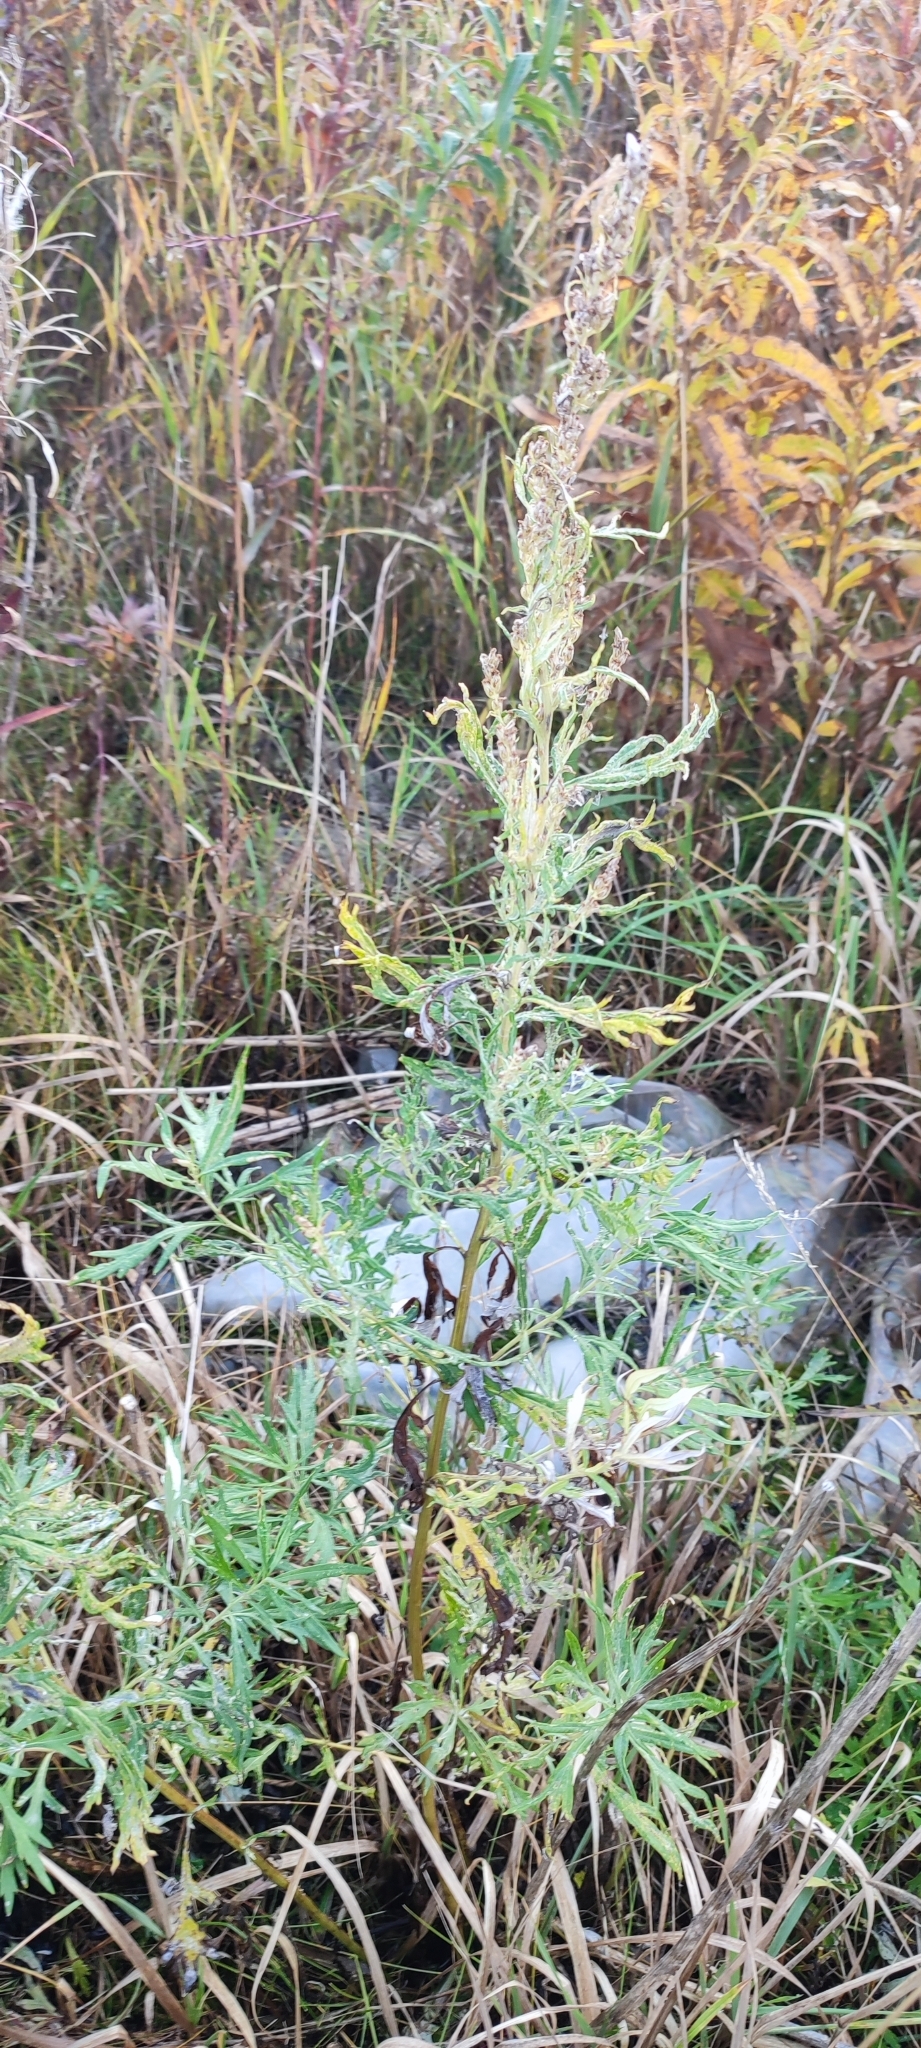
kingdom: Plantae
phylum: Tracheophyta
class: Magnoliopsida
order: Asterales
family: Asteraceae
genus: Artemisia
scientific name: Artemisia tilesii
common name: Aleutian mugwort
